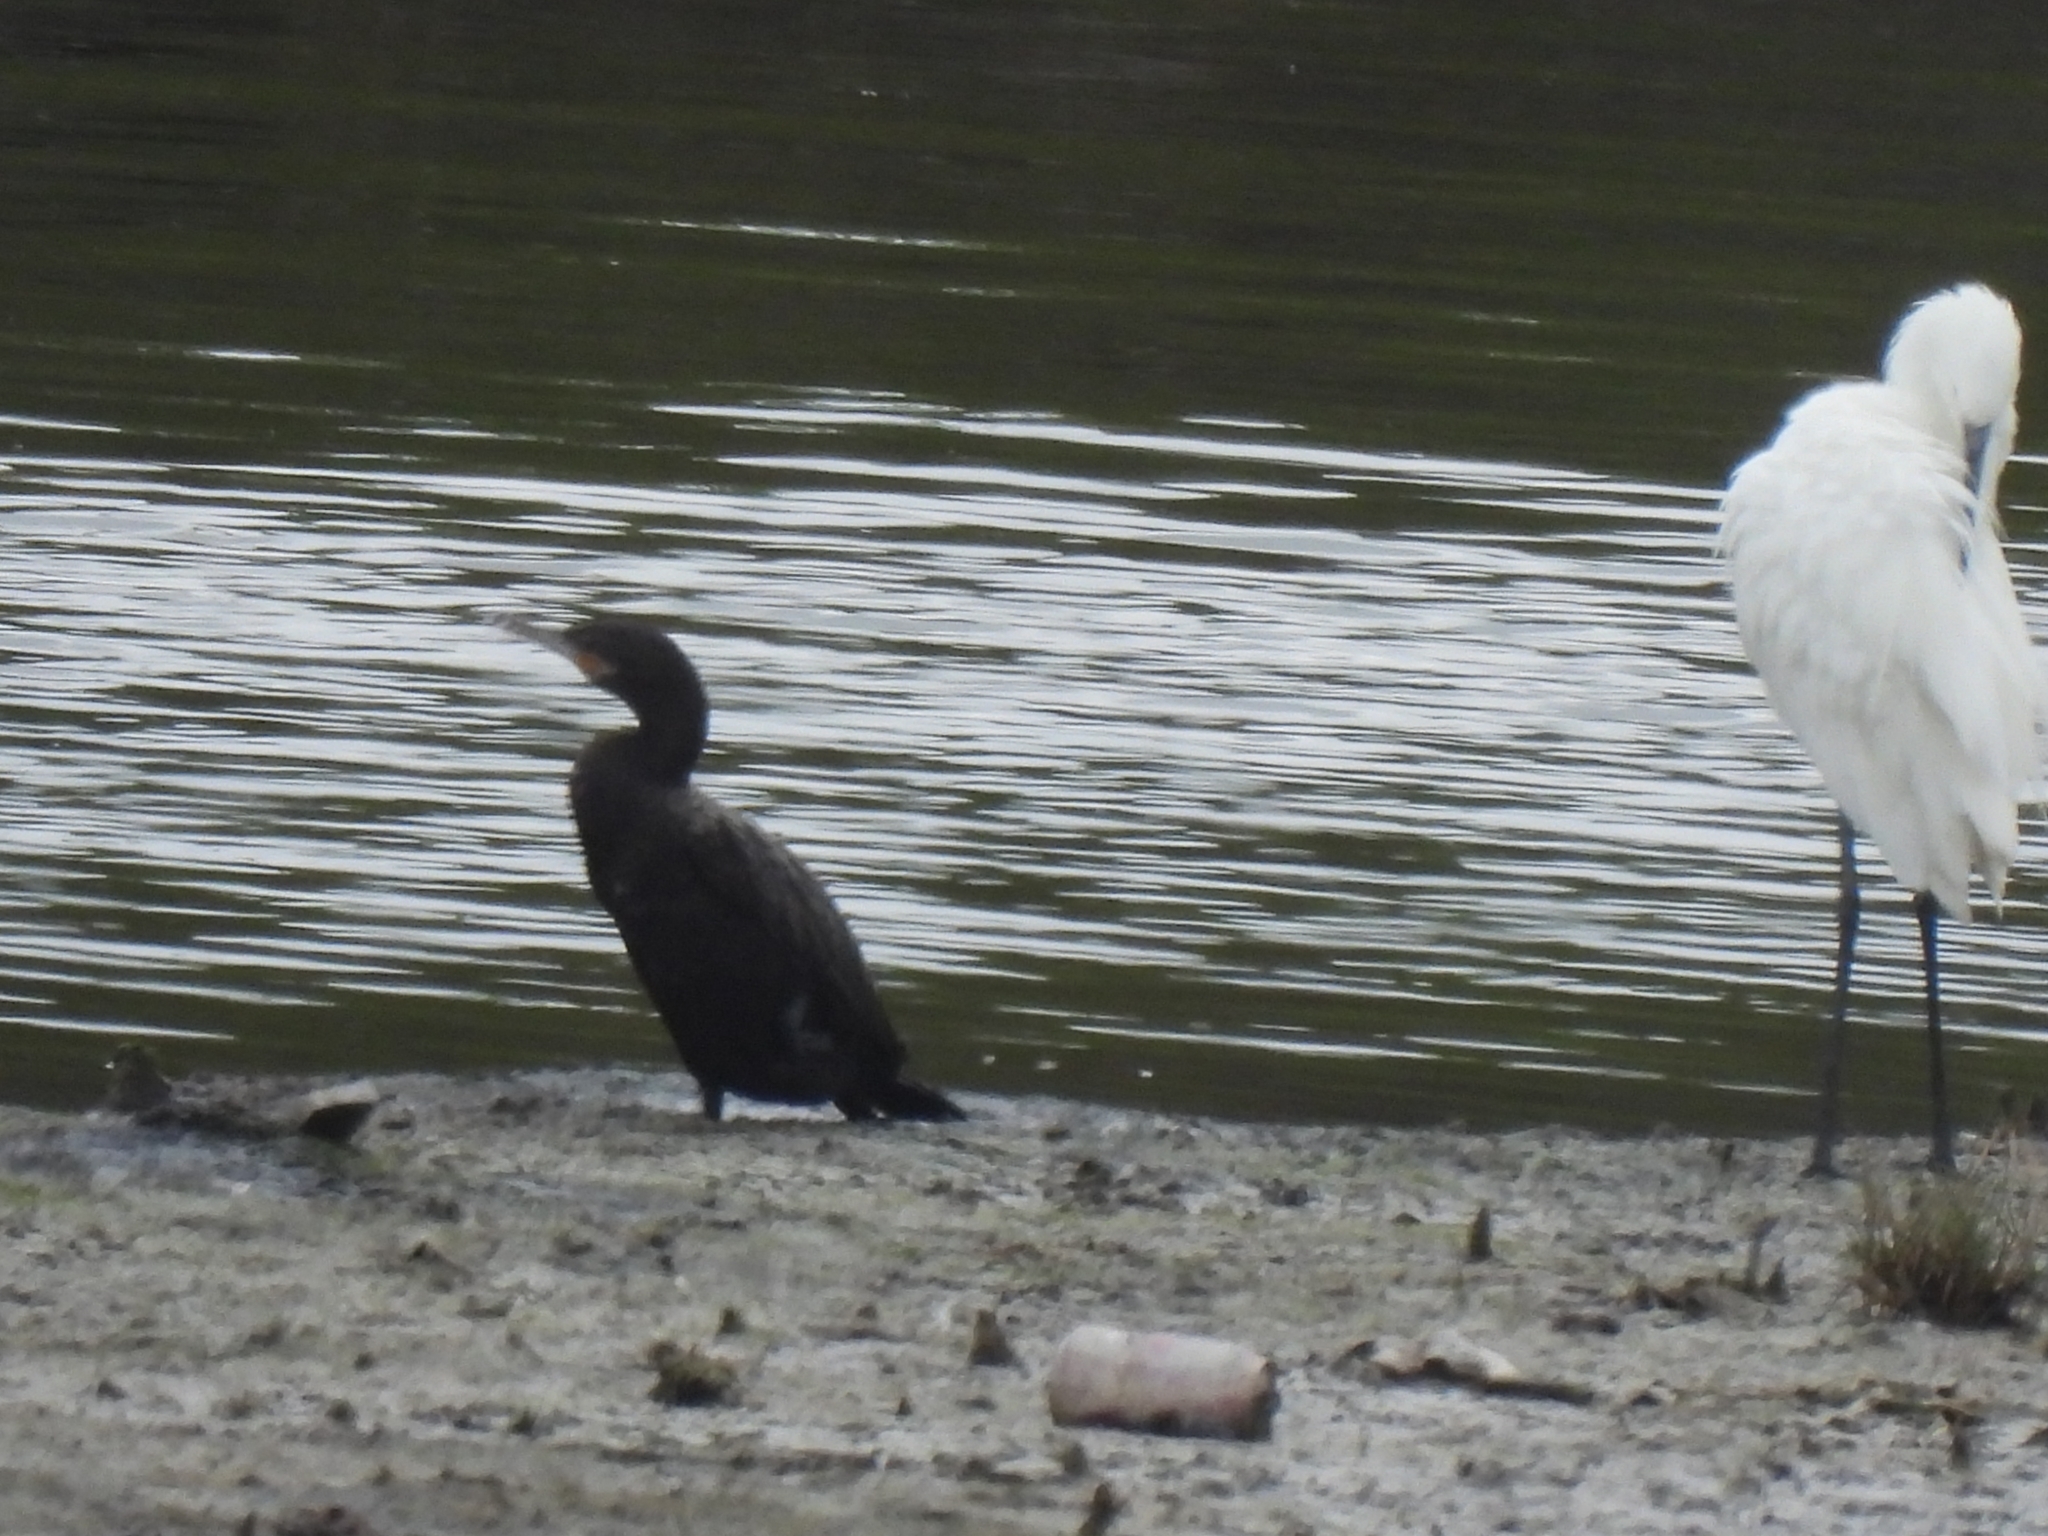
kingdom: Animalia
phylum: Chordata
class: Aves
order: Suliformes
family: Phalacrocoracidae
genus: Phalacrocorax
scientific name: Phalacrocorax brasilianus
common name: Neotropic cormorant
